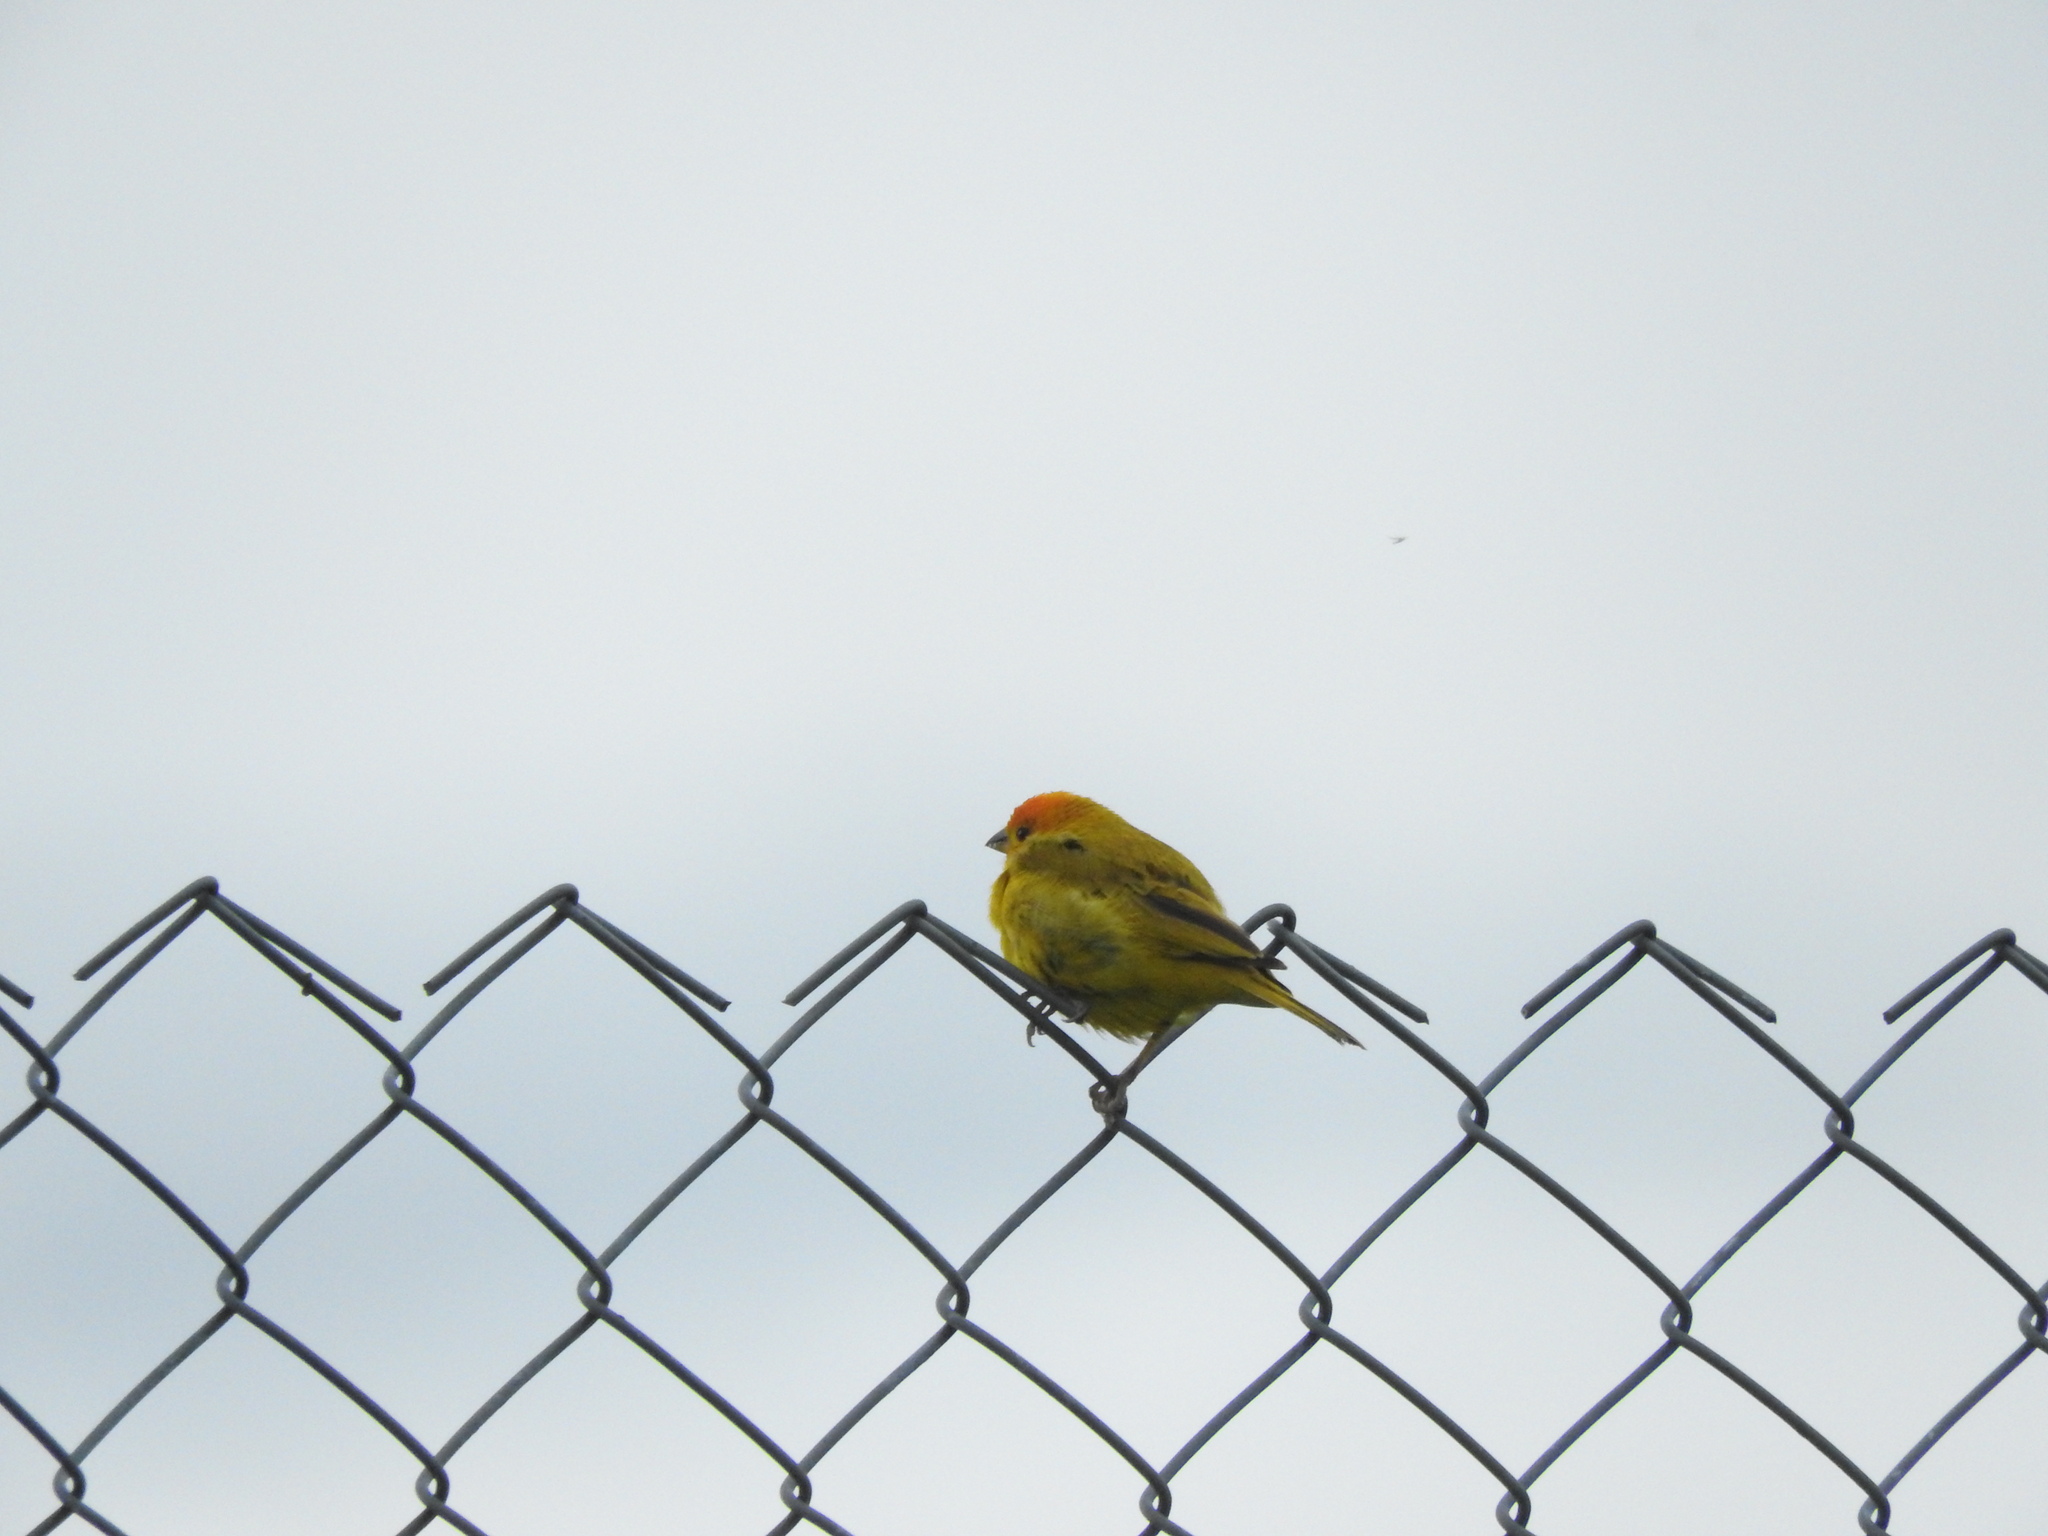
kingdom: Animalia
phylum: Chordata
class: Aves
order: Passeriformes
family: Thraupidae
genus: Sicalis
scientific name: Sicalis flaveola
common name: Saffron finch
